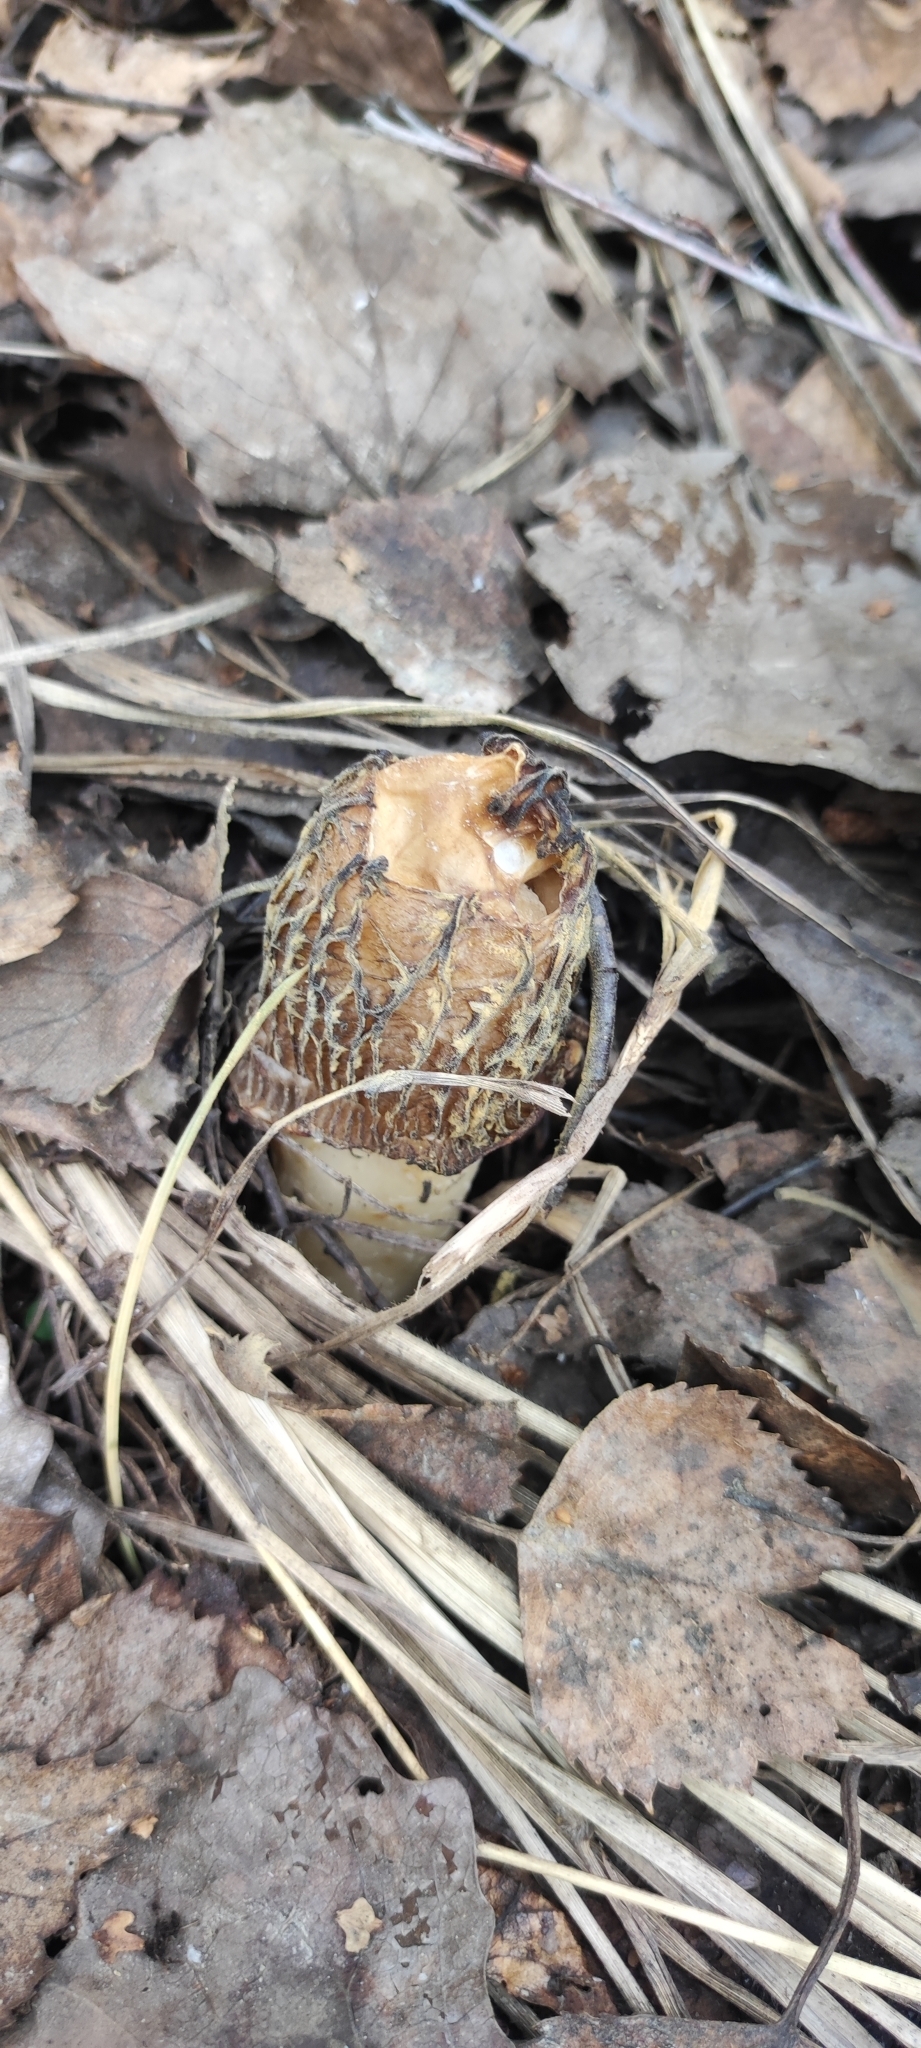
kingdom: Fungi
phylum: Ascomycota
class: Pezizomycetes
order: Pezizales
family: Morchellaceae
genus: Verpa
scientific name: Verpa bohemica
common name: Wrinkled thimble morel
